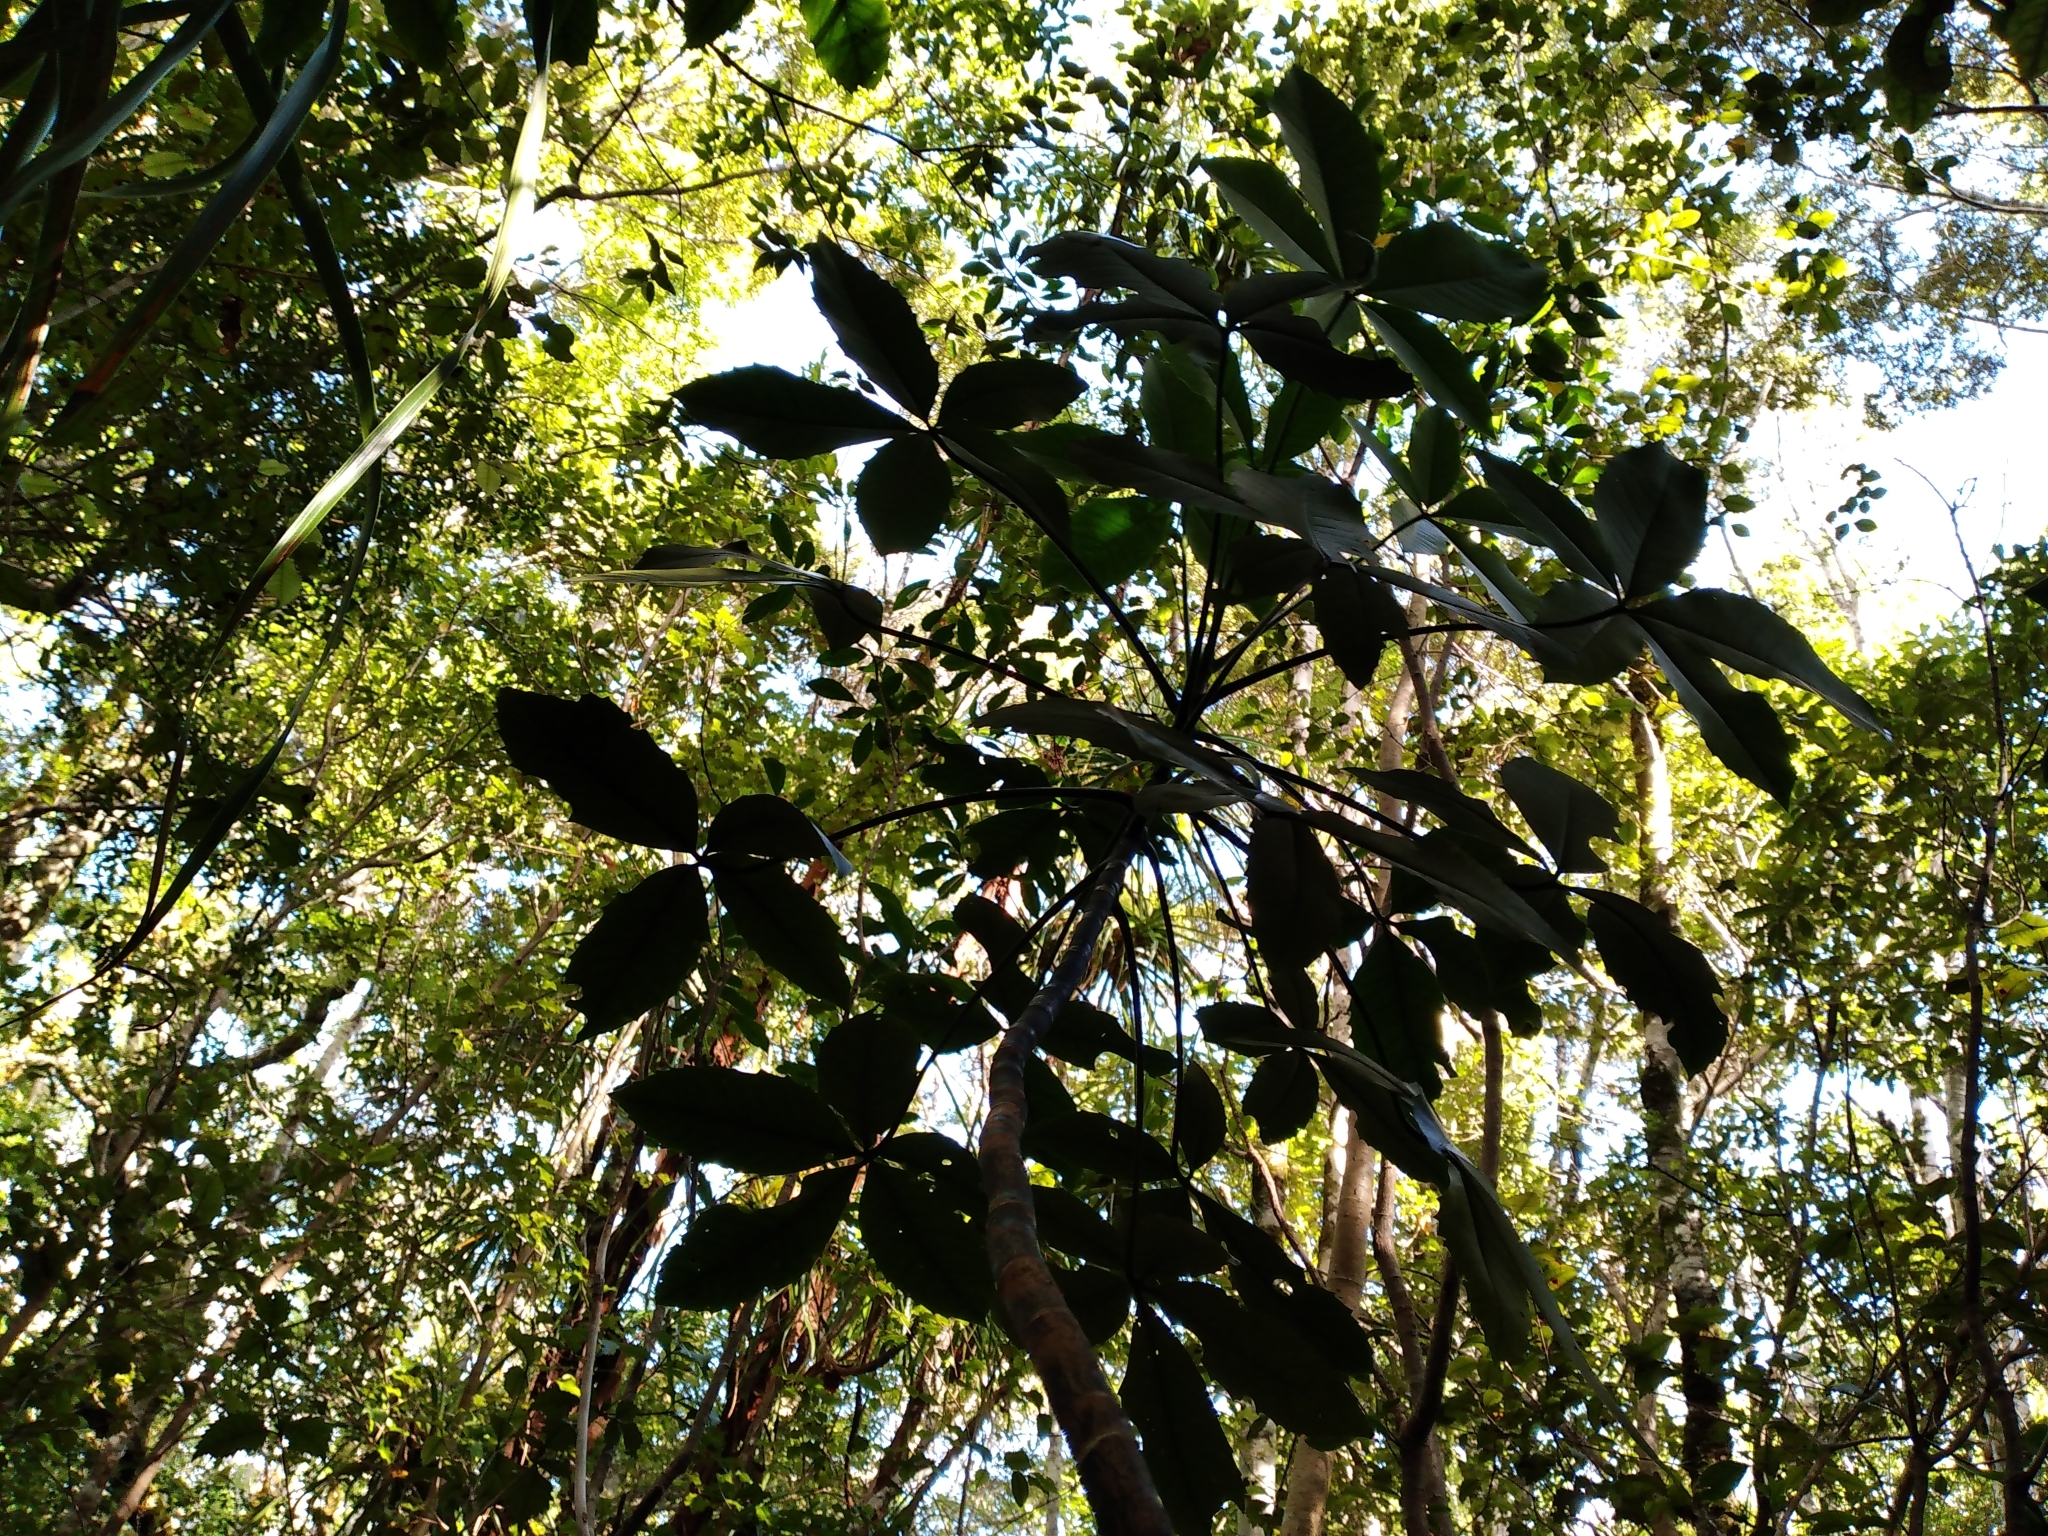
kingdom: Plantae
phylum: Tracheophyta
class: Magnoliopsida
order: Apiales
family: Araliaceae
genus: Neopanax
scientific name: Neopanax colensoi
